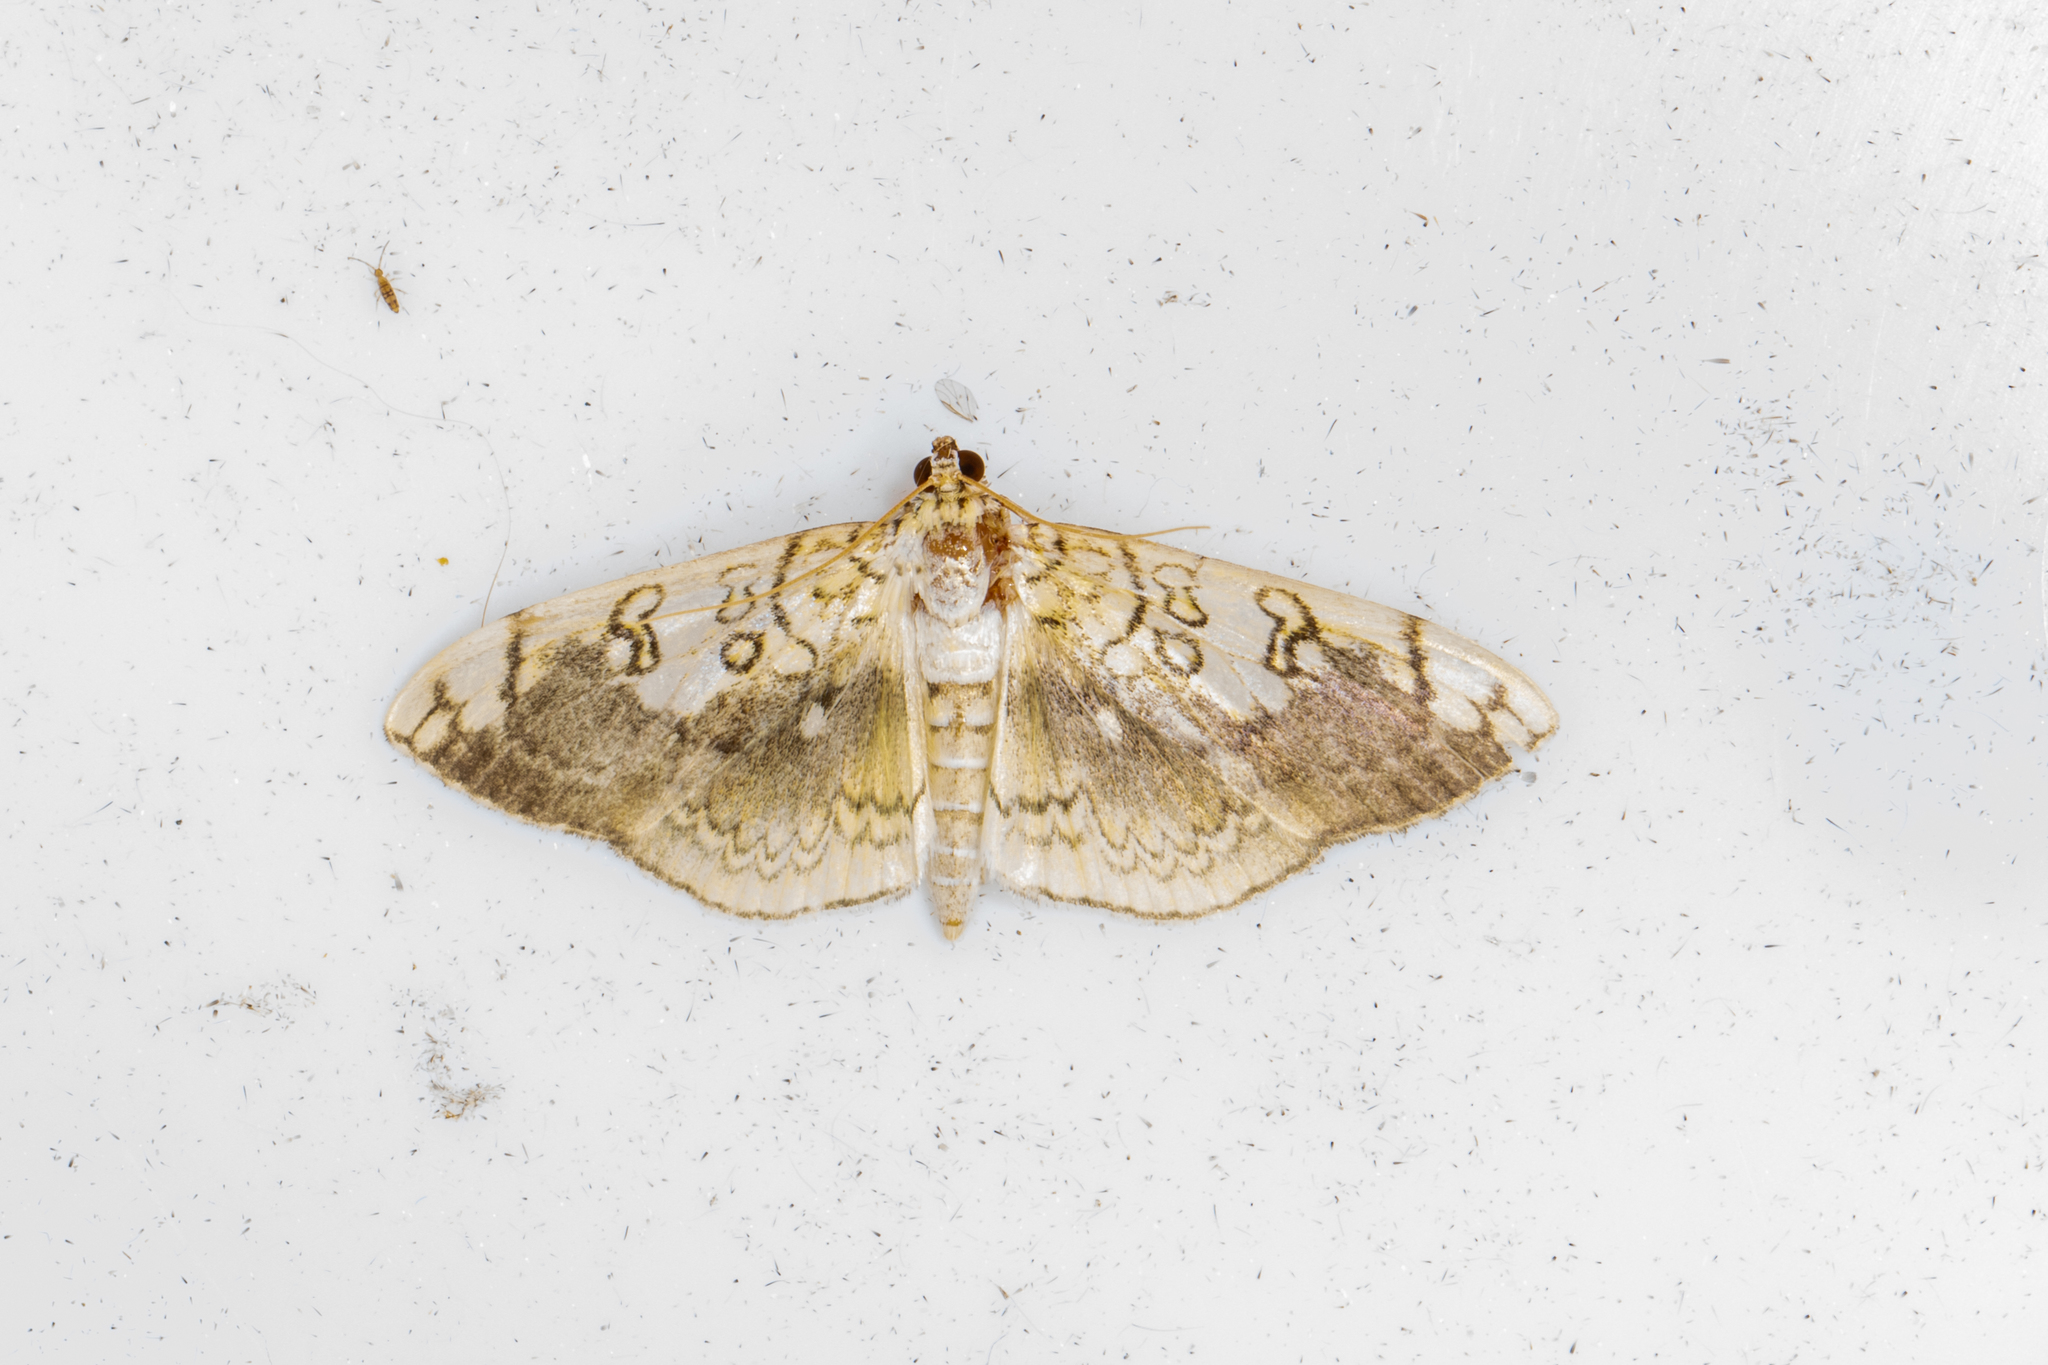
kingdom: Animalia
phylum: Arthropoda
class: Insecta
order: Lepidoptera
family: Crambidae
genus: Pantographa
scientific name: Pantographa limata
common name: Basswood leafroller moth
